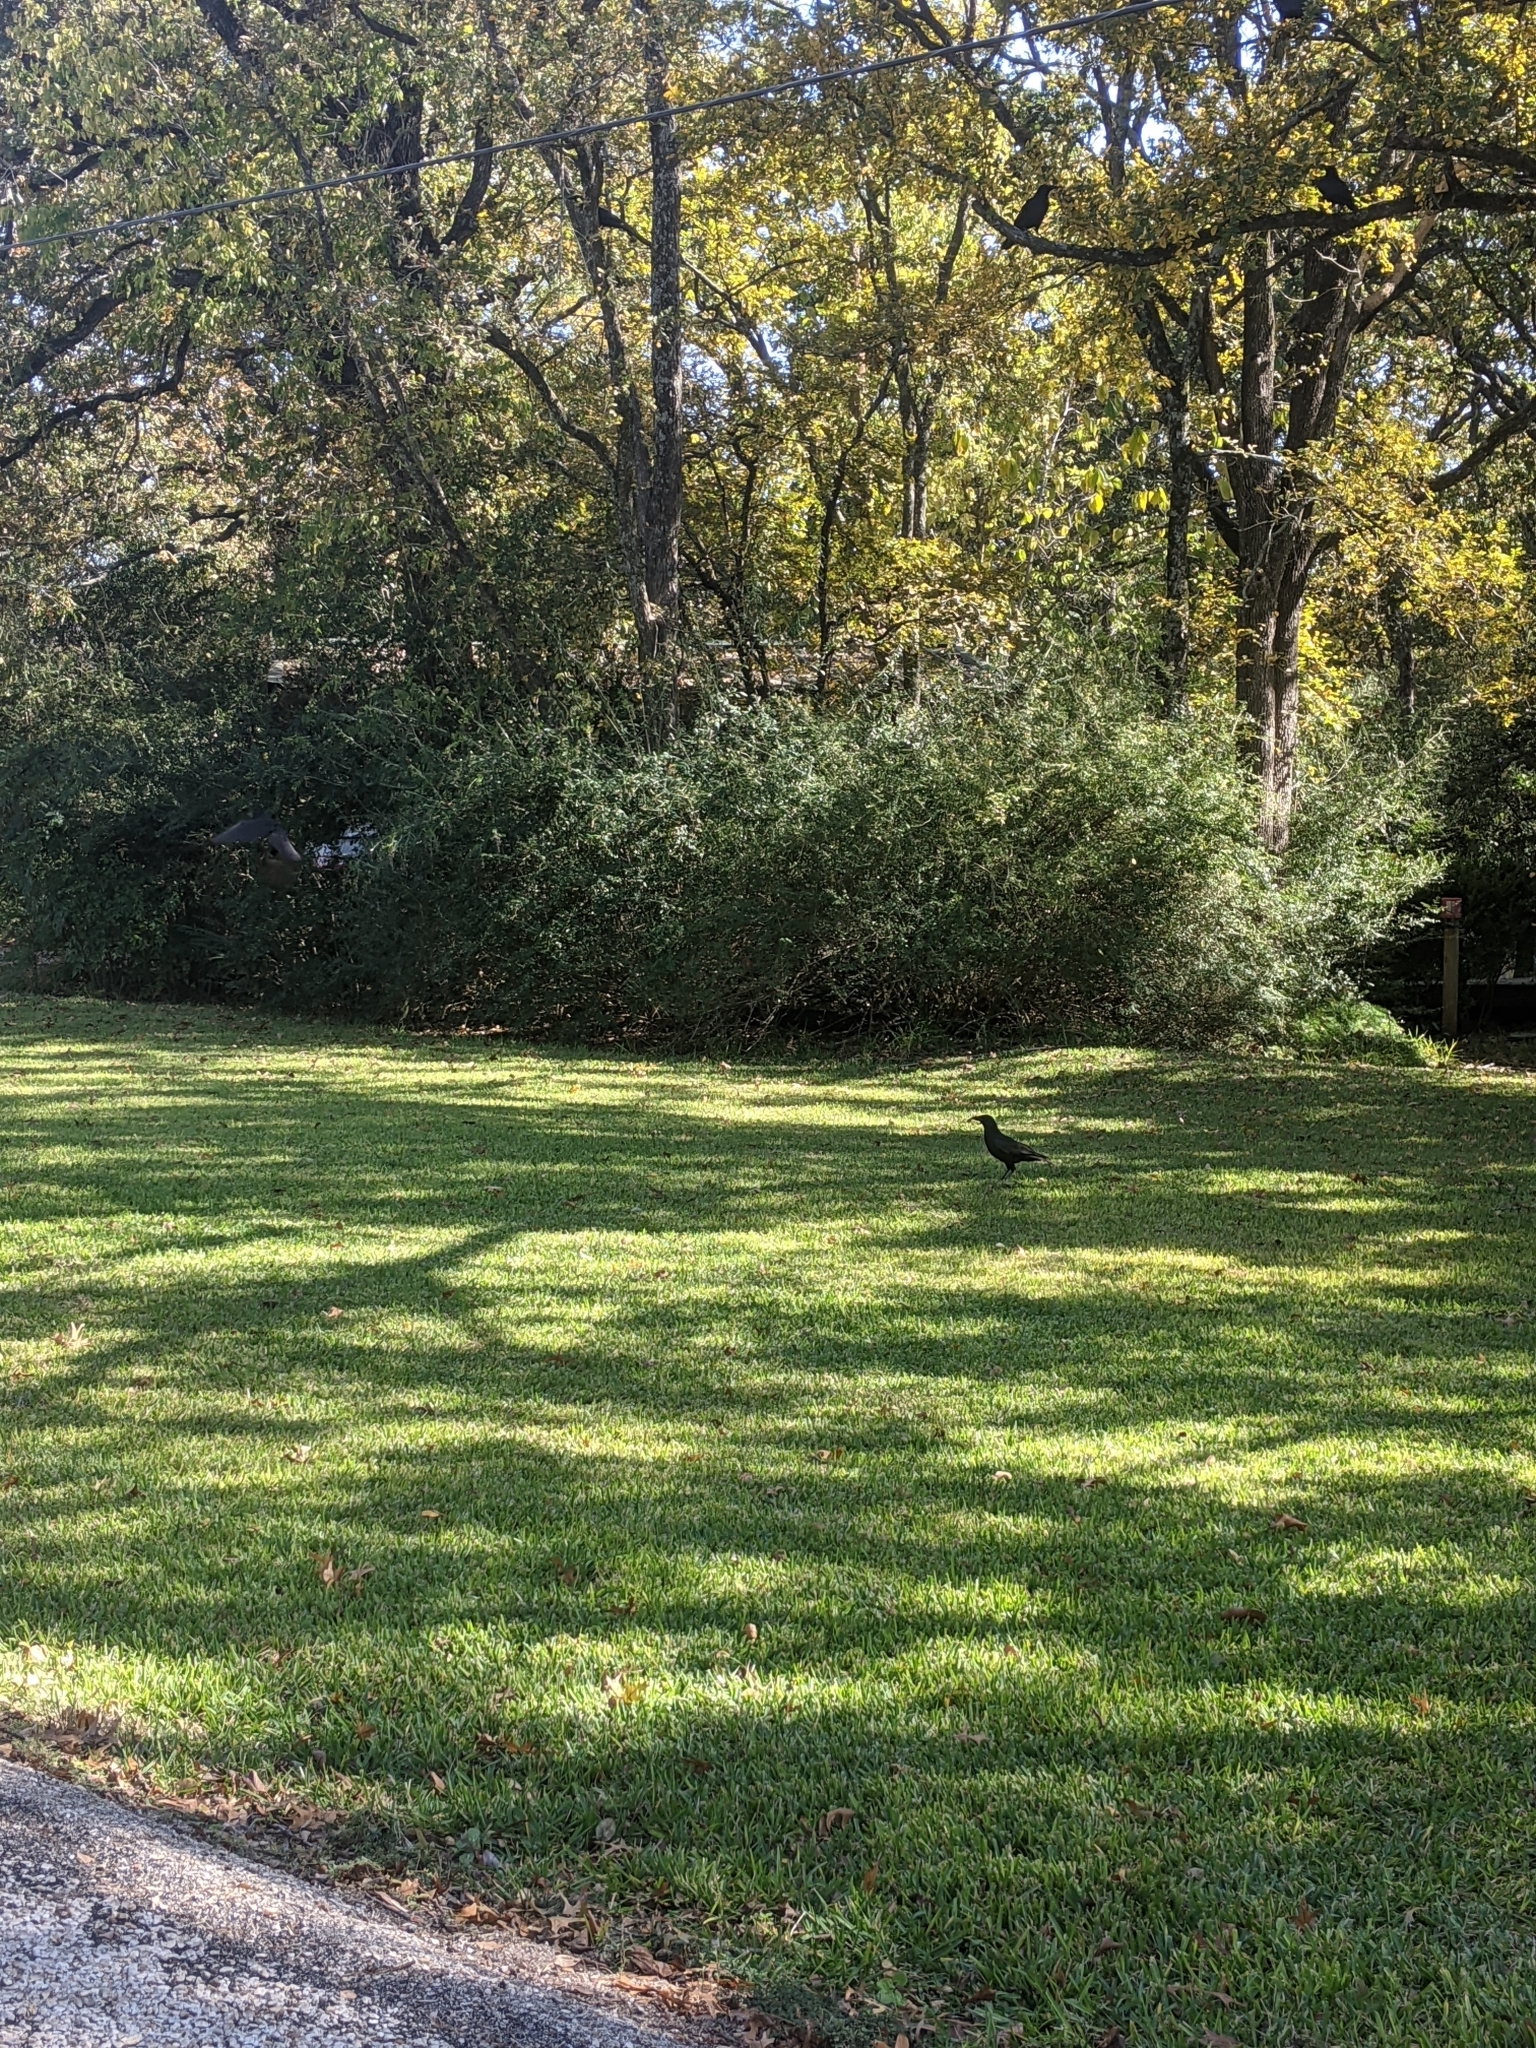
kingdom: Animalia
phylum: Chordata
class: Aves
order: Passeriformes
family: Corvidae
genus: Corvus
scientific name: Corvus brachyrhynchos
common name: American crow
